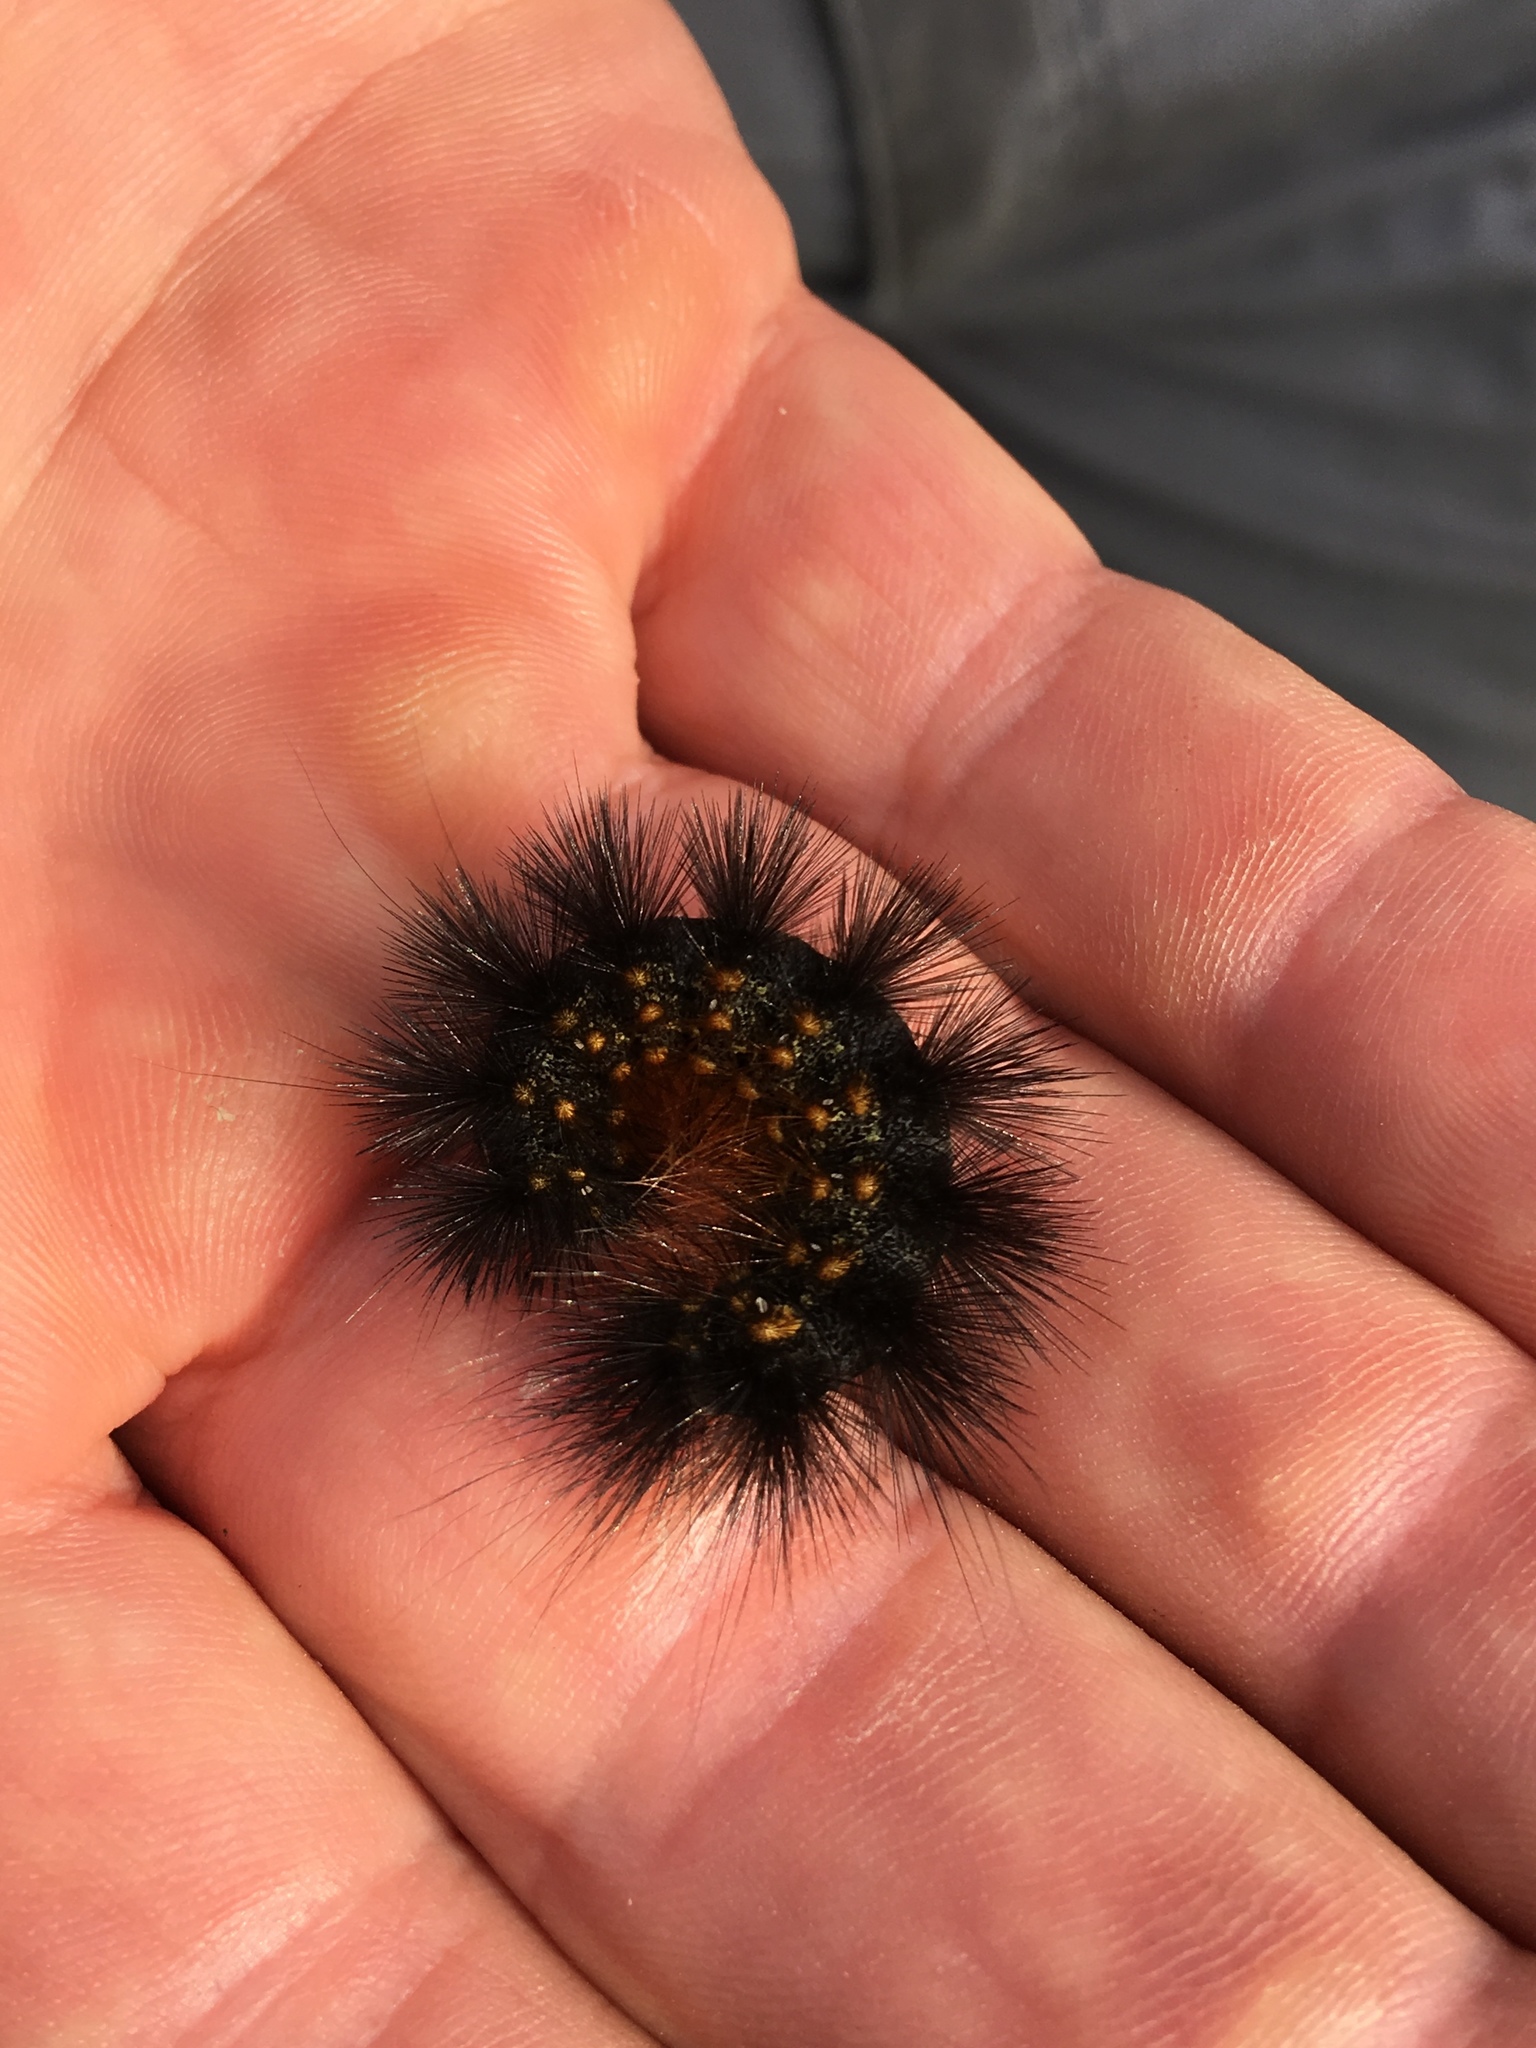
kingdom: Animalia
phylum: Arthropoda
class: Insecta
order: Lepidoptera
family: Erebidae
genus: Estigmene
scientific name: Estigmene acrea
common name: Salt marsh moth
